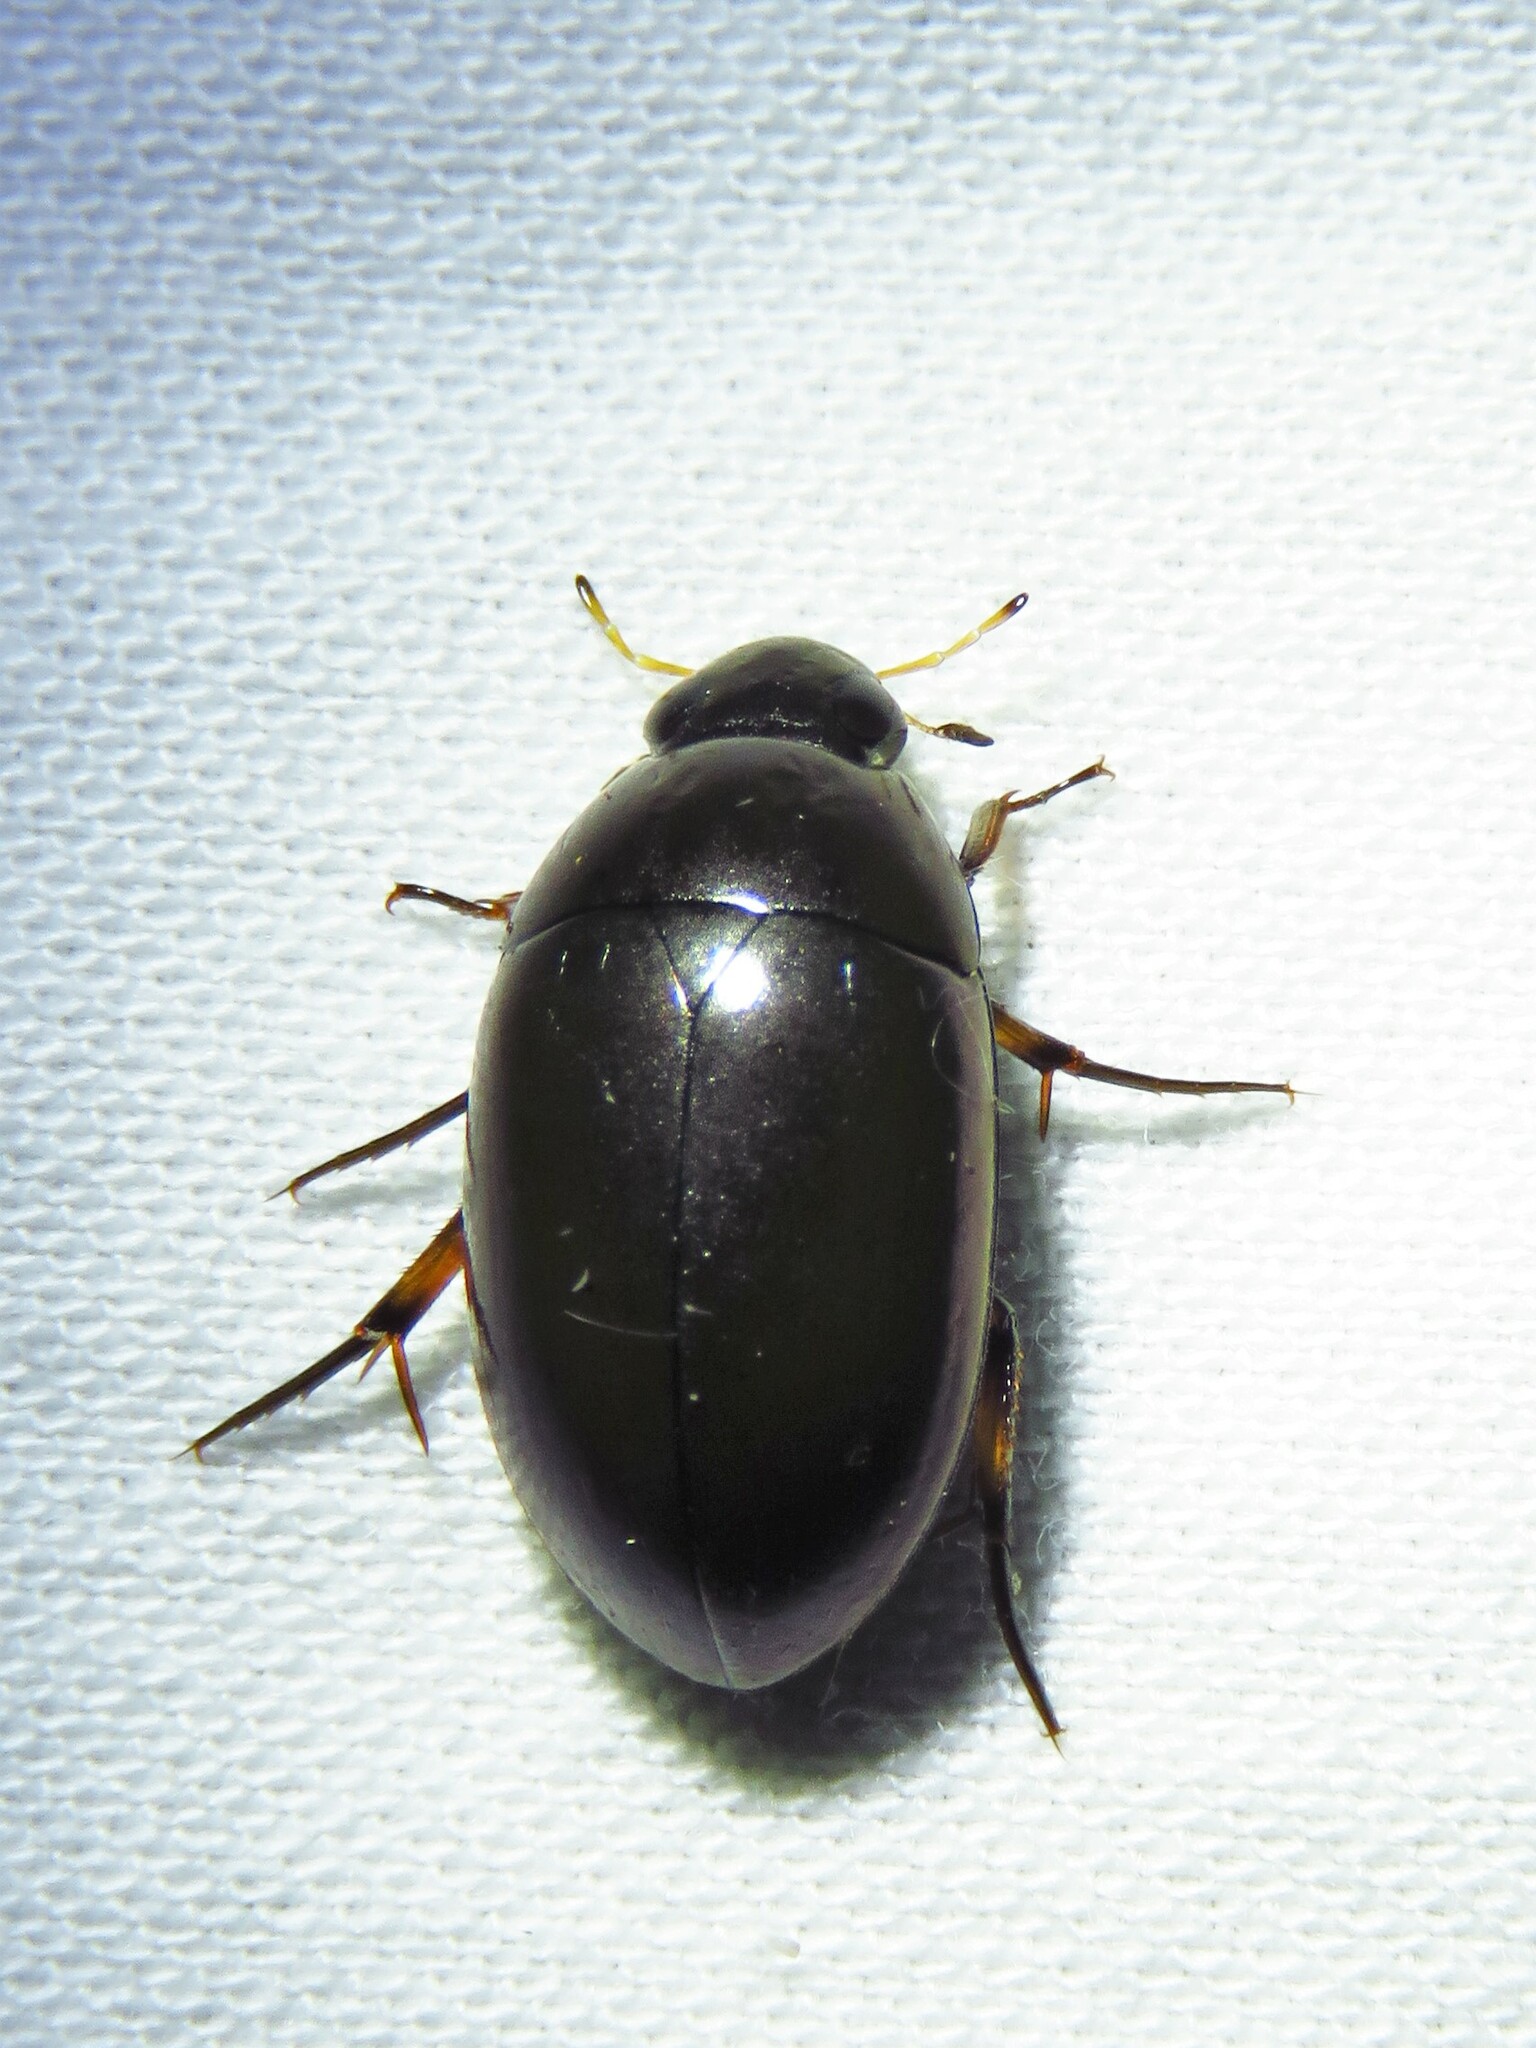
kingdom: Animalia
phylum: Arthropoda
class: Insecta
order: Coleoptera
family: Hydrophilidae
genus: Tropisternus
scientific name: Tropisternus
